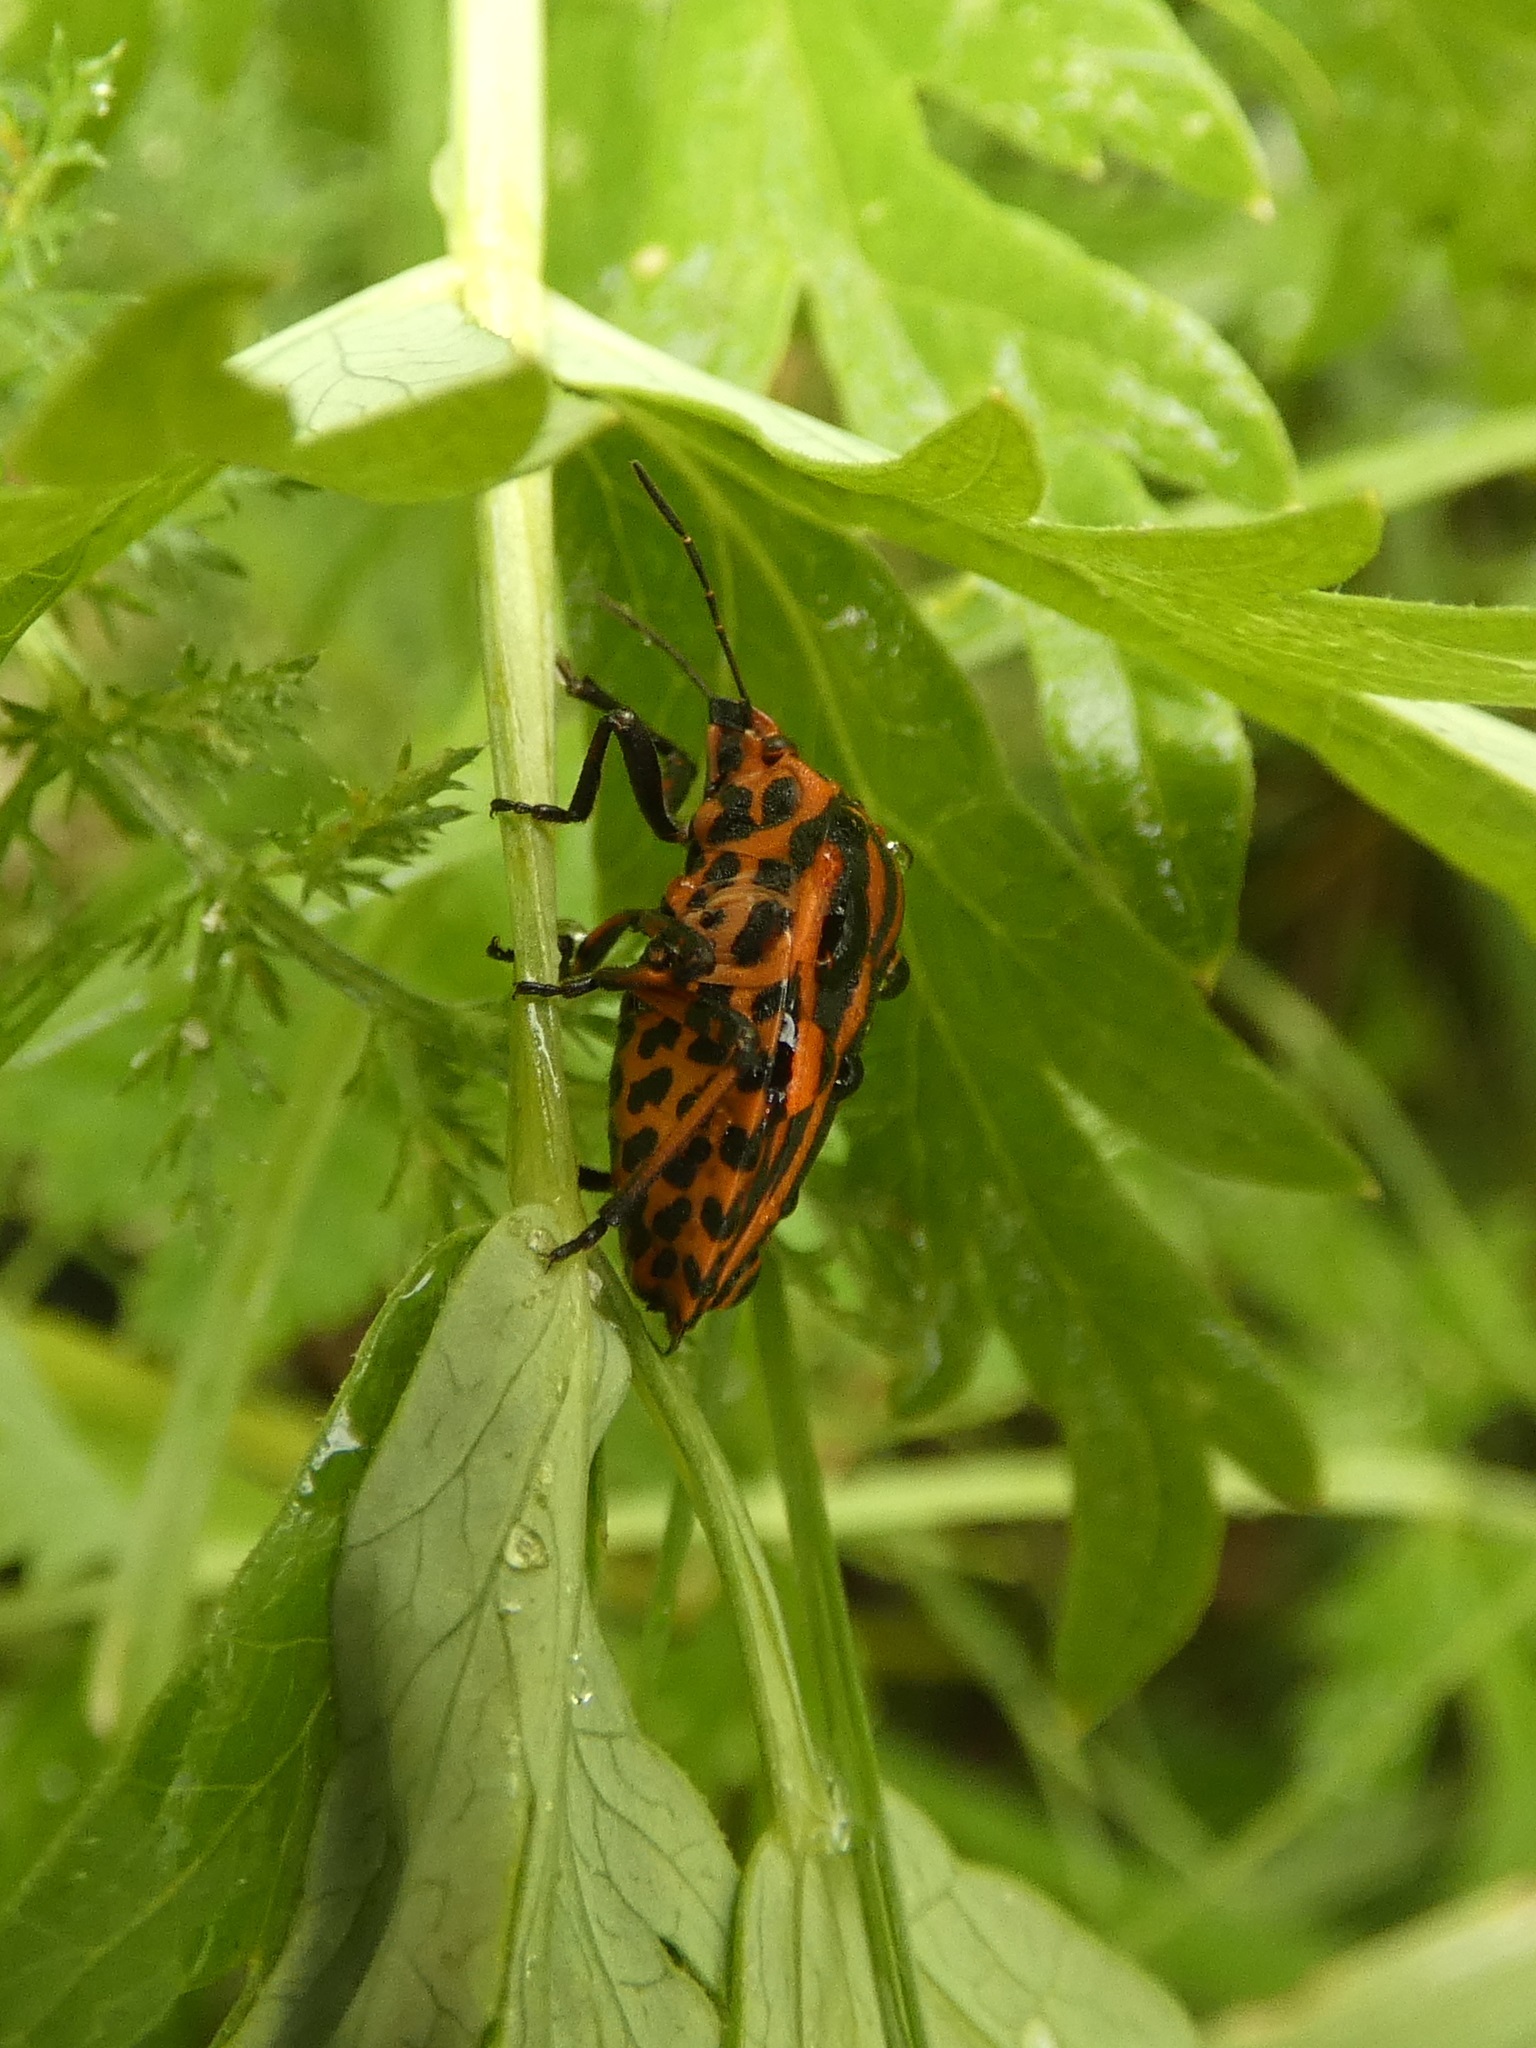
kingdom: Animalia
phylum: Arthropoda
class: Insecta
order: Hemiptera
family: Pentatomidae
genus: Graphosoma
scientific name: Graphosoma italicum
